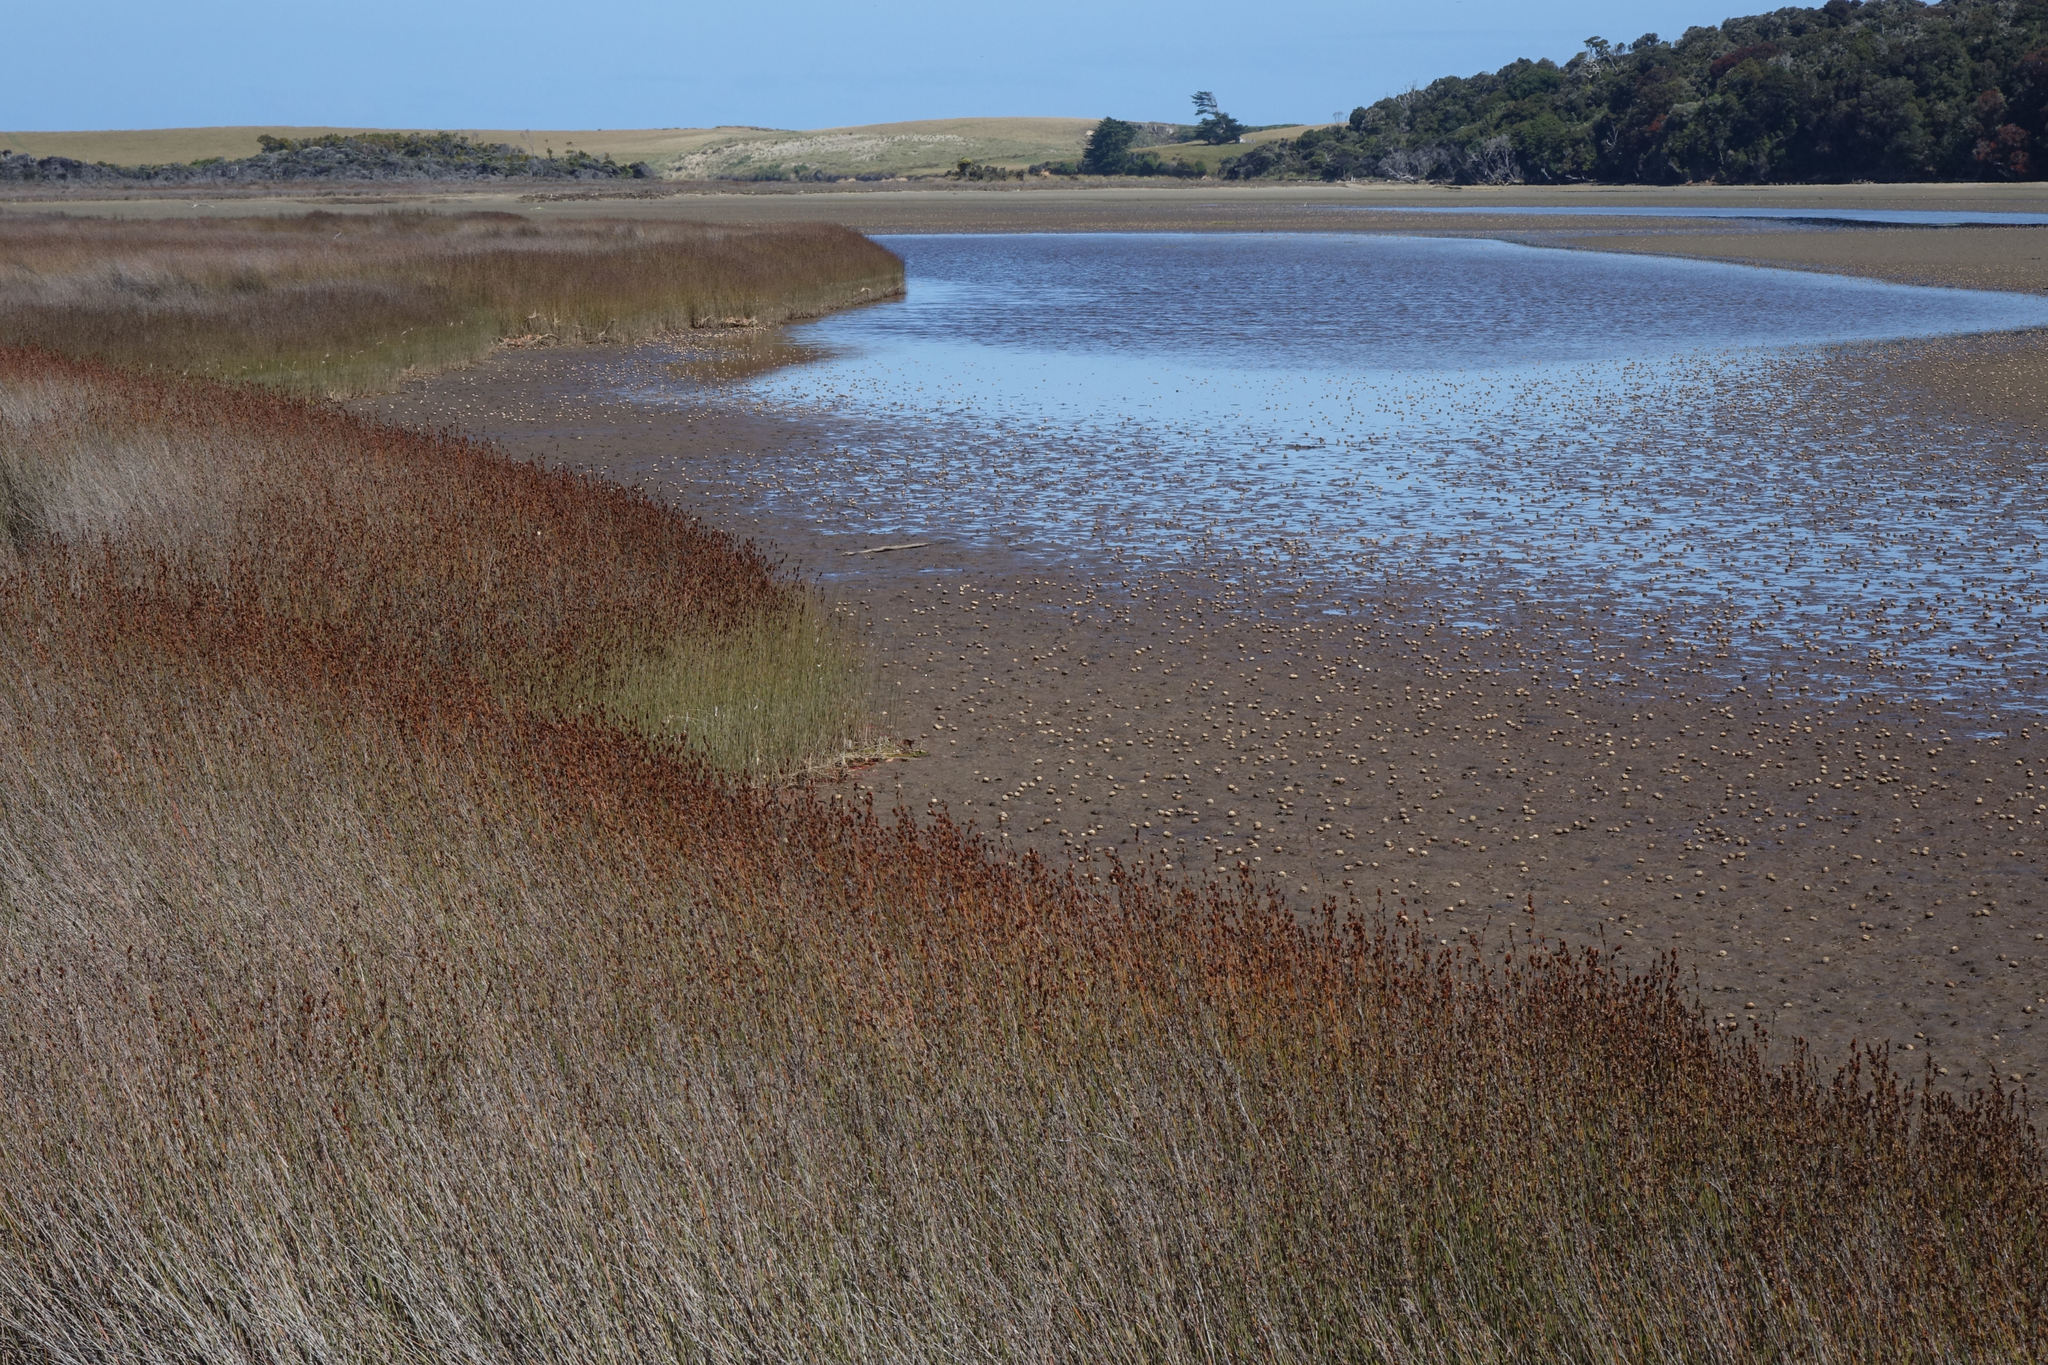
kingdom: Plantae
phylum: Tracheophyta
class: Liliopsida
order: Poales
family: Restionaceae
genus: Apodasmia
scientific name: Apodasmia similis
